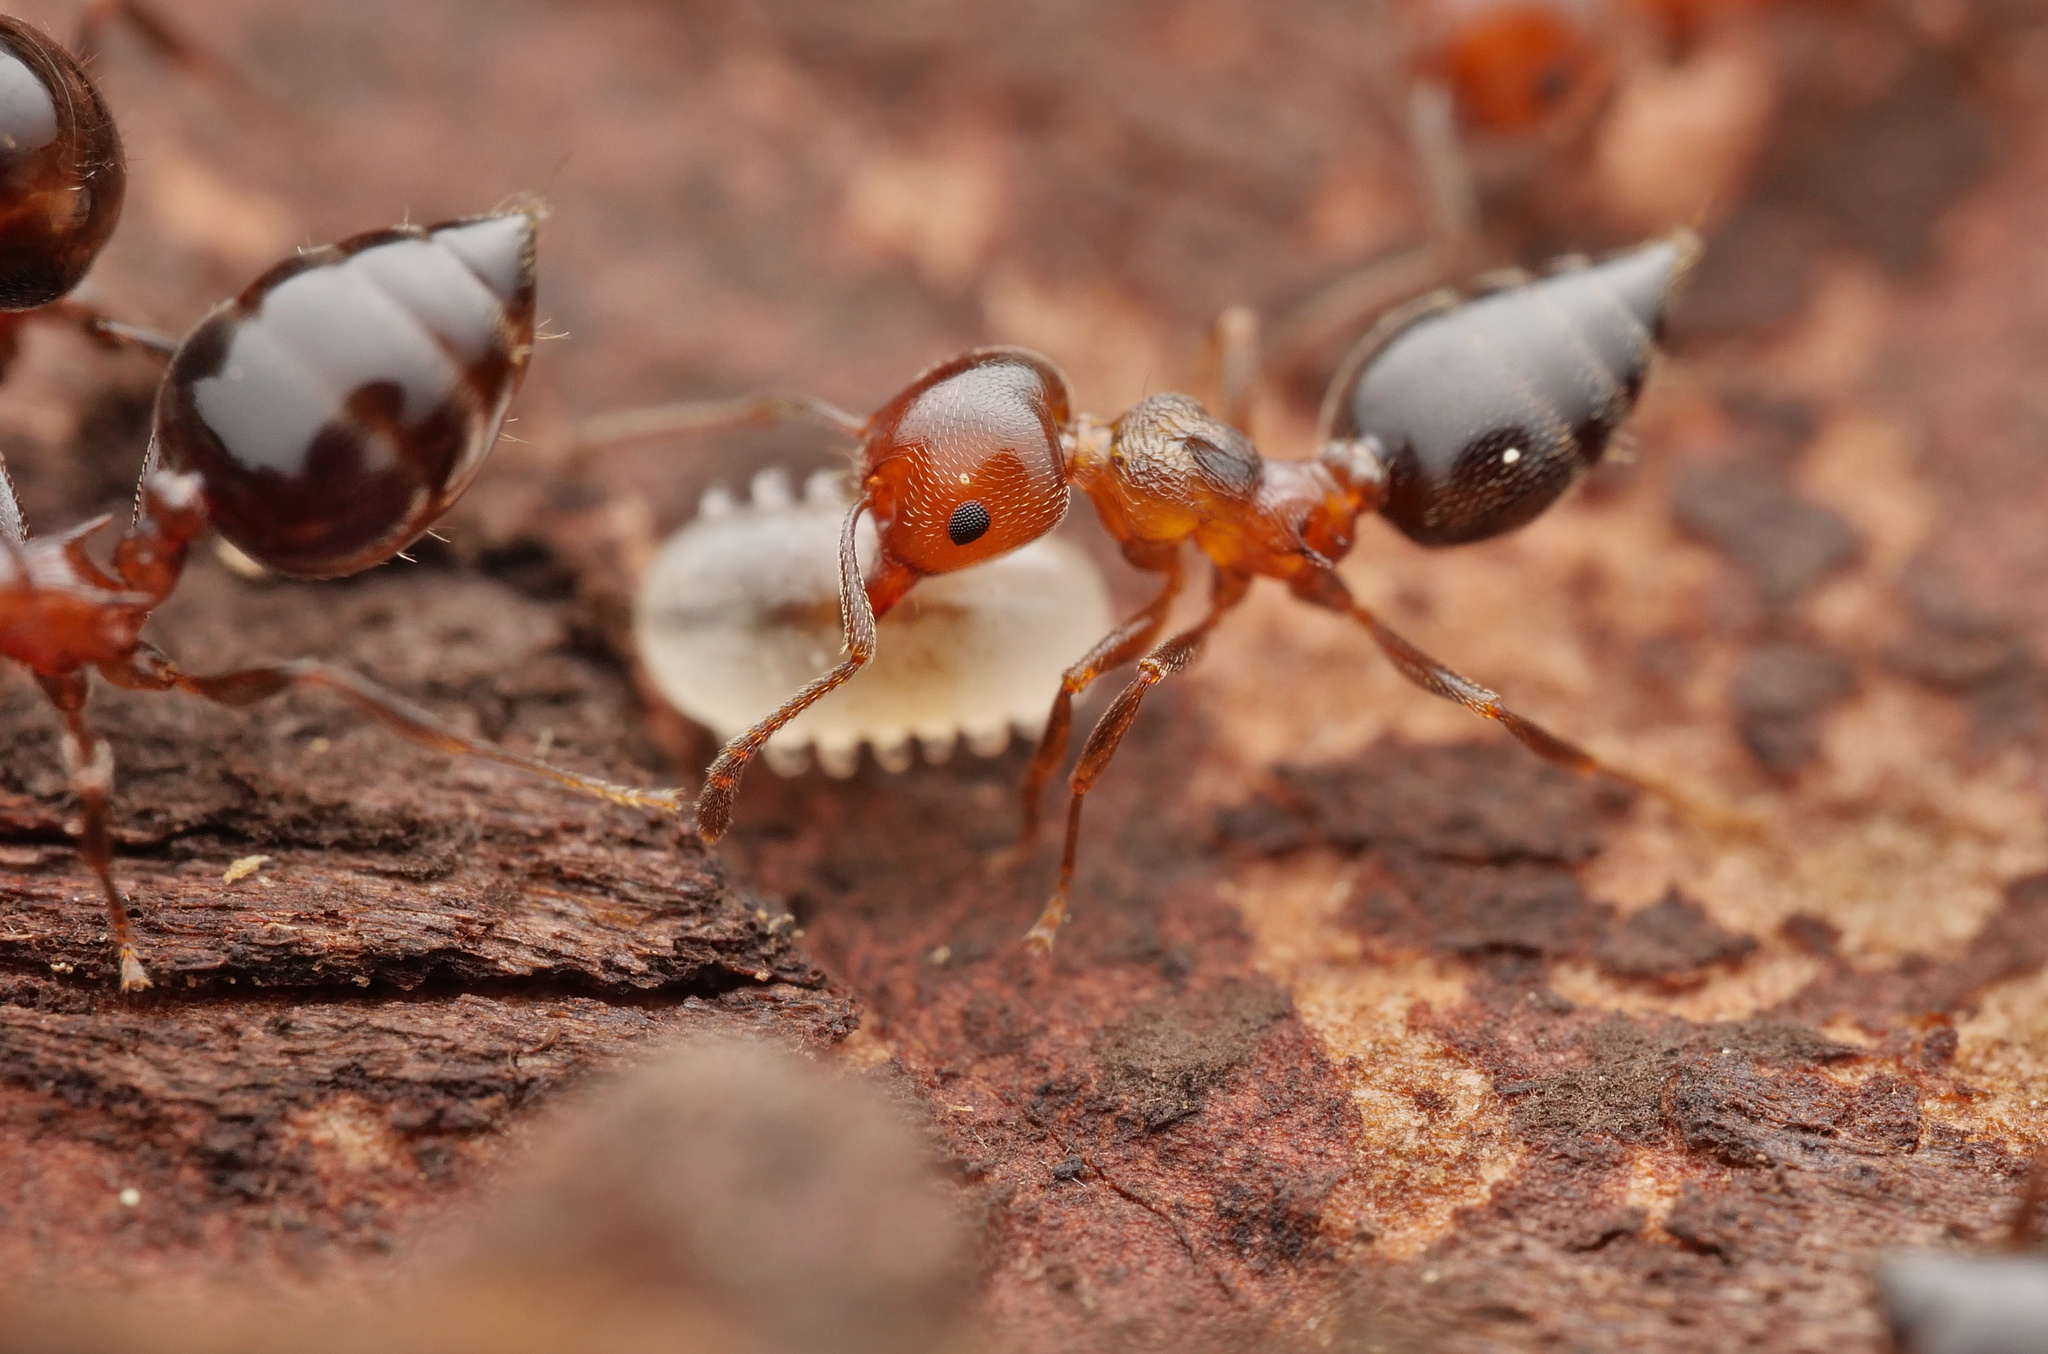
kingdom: Animalia
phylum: Arthropoda
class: Insecta
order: Hymenoptera
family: Formicidae
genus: Crematogaster
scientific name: Crematogaster schmidti
